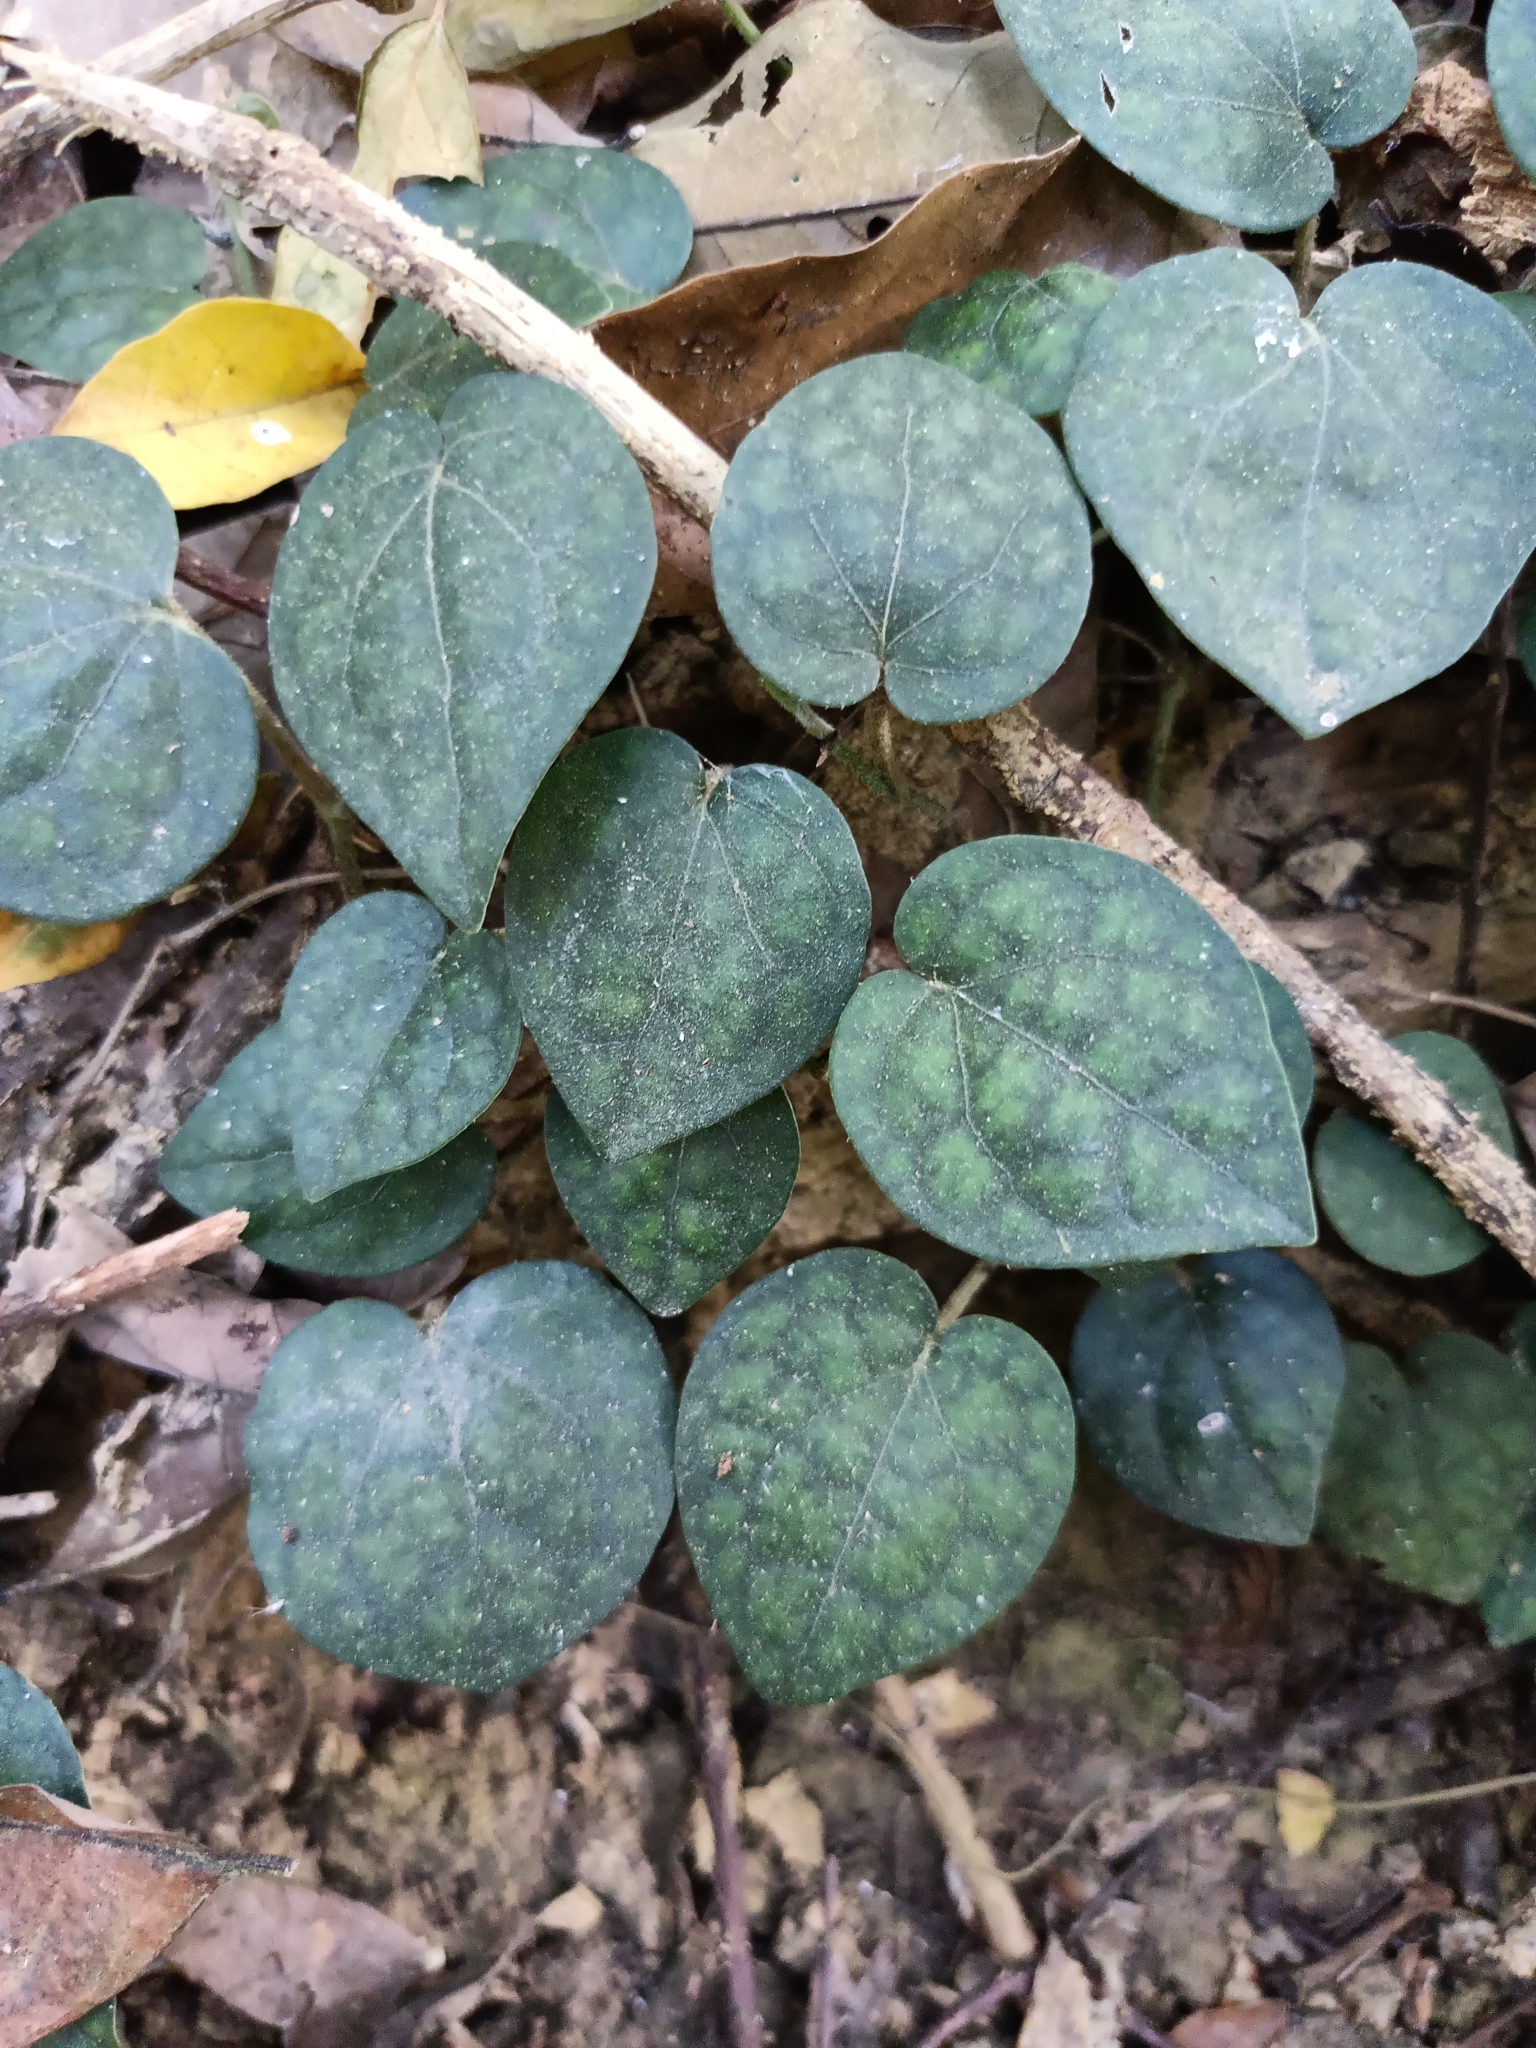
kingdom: Plantae
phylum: Tracheophyta
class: Magnoliopsida
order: Piperales
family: Piperaceae
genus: Piper
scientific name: Piper kadsura
